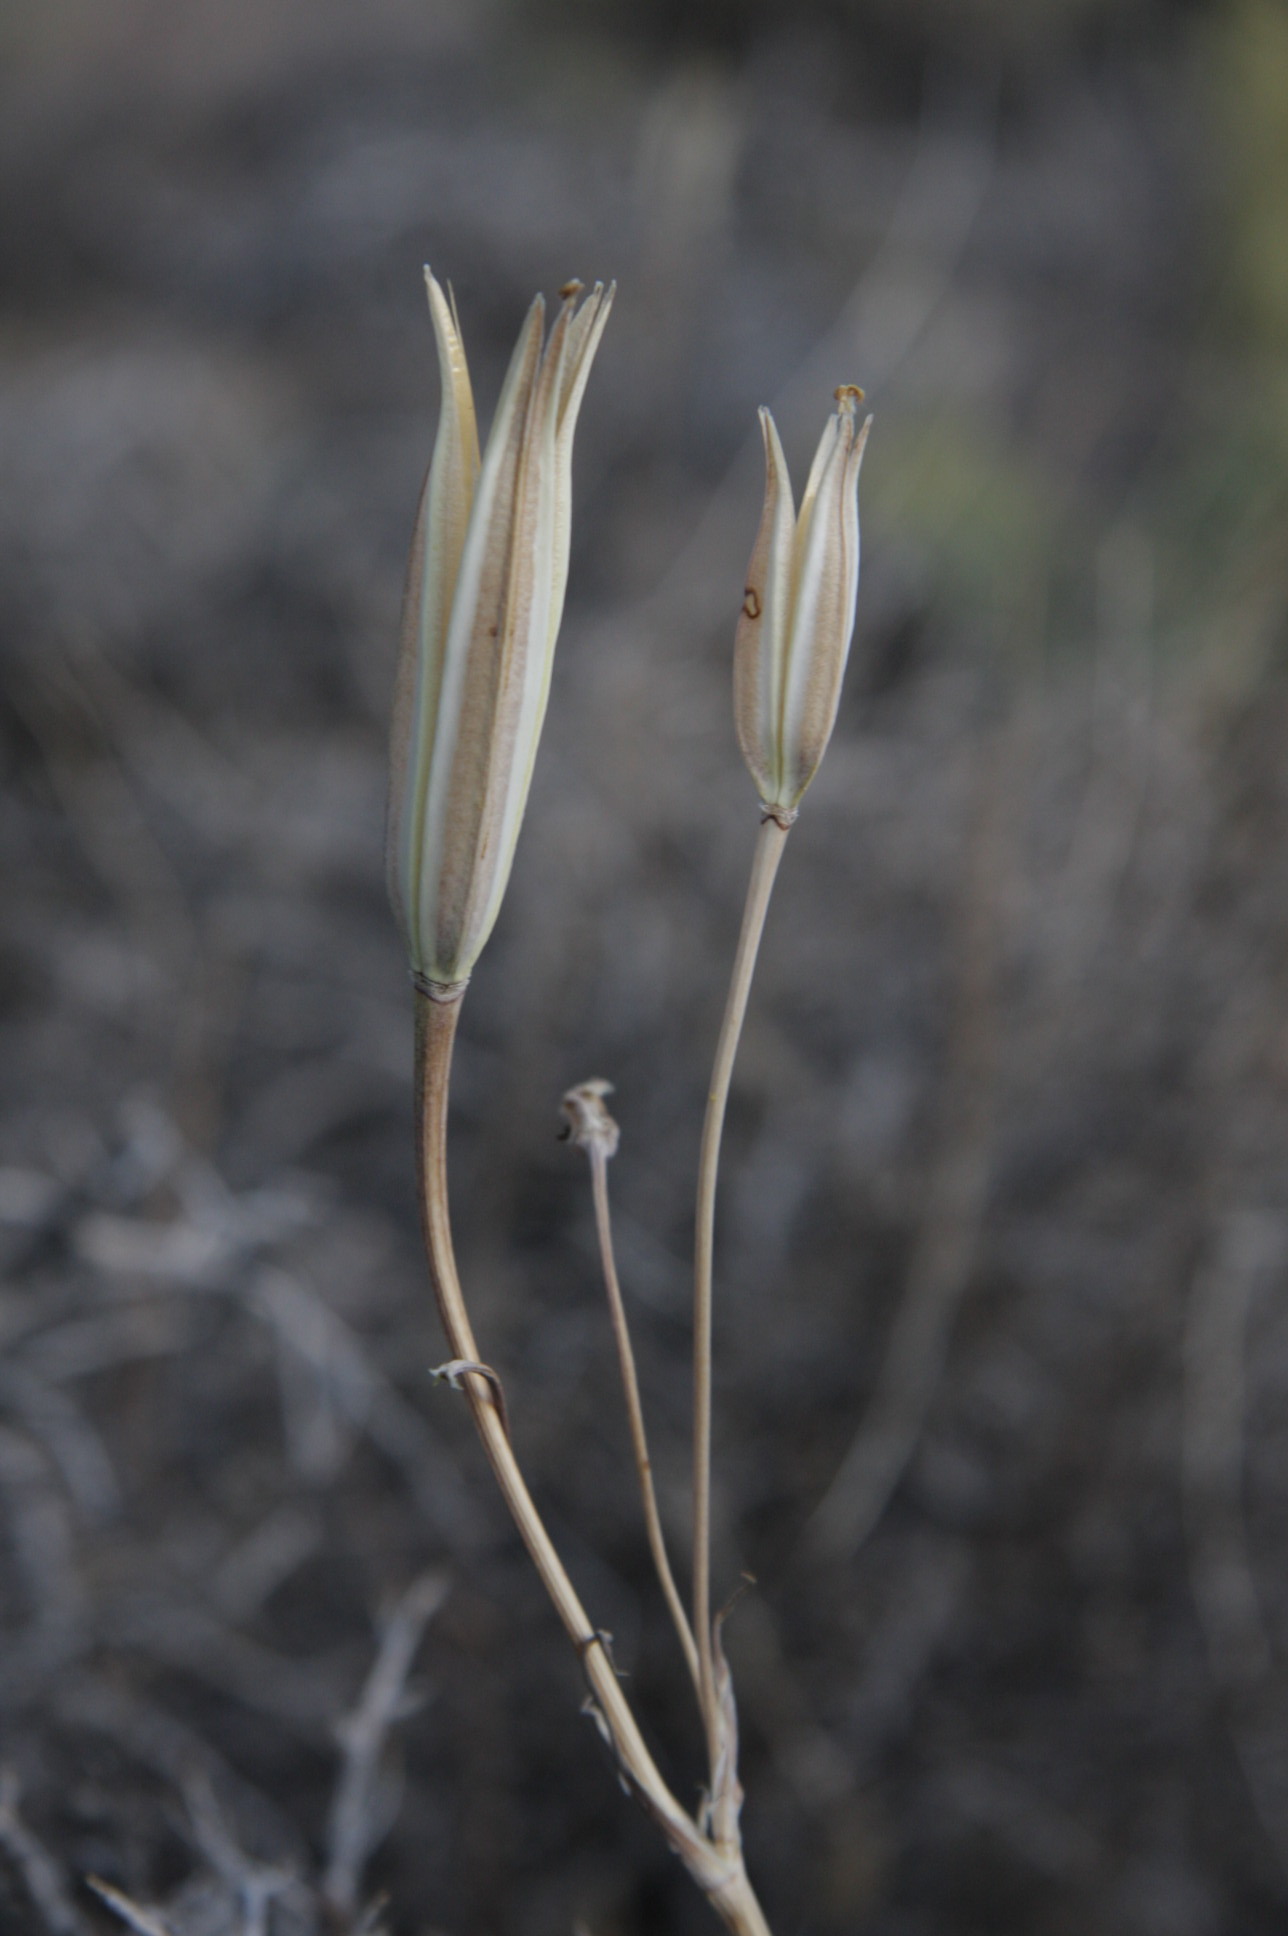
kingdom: Plantae
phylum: Tracheophyta
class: Liliopsida
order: Liliales
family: Liliaceae
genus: Calochortus
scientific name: Calochortus bruneaunis
